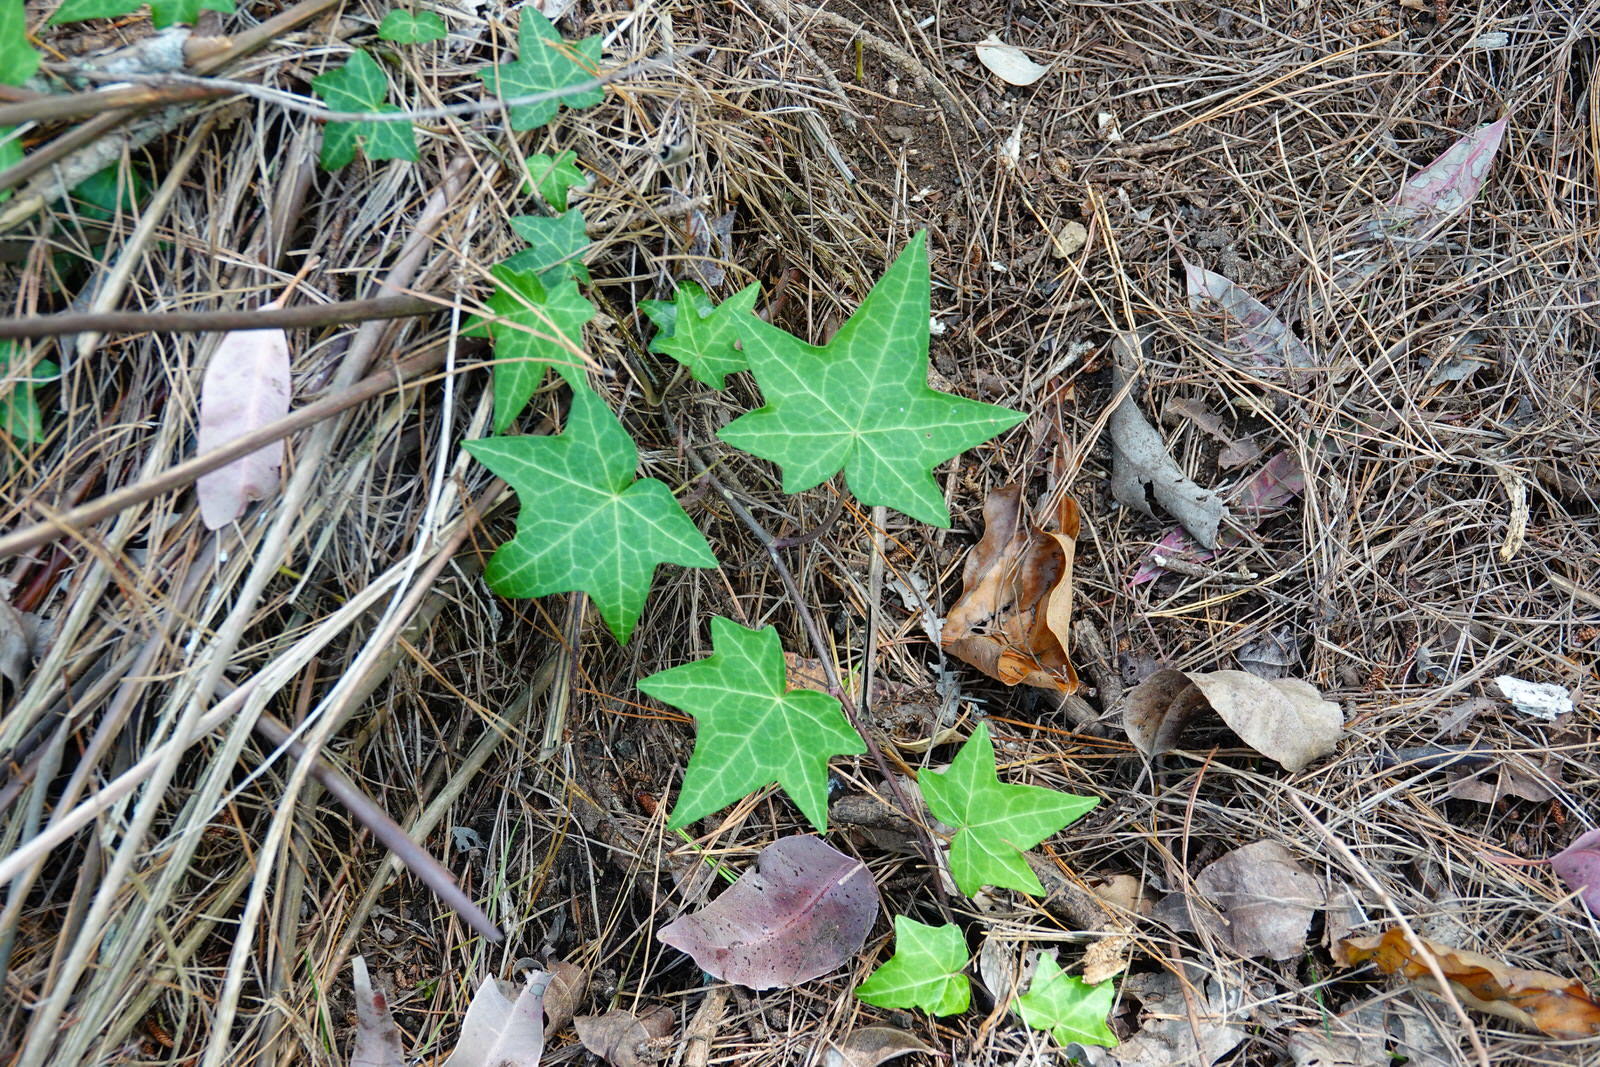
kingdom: Plantae
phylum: Tracheophyta
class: Magnoliopsida
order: Apiales
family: Araliaceae
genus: Hedera
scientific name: Hedera helix
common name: Ivy
